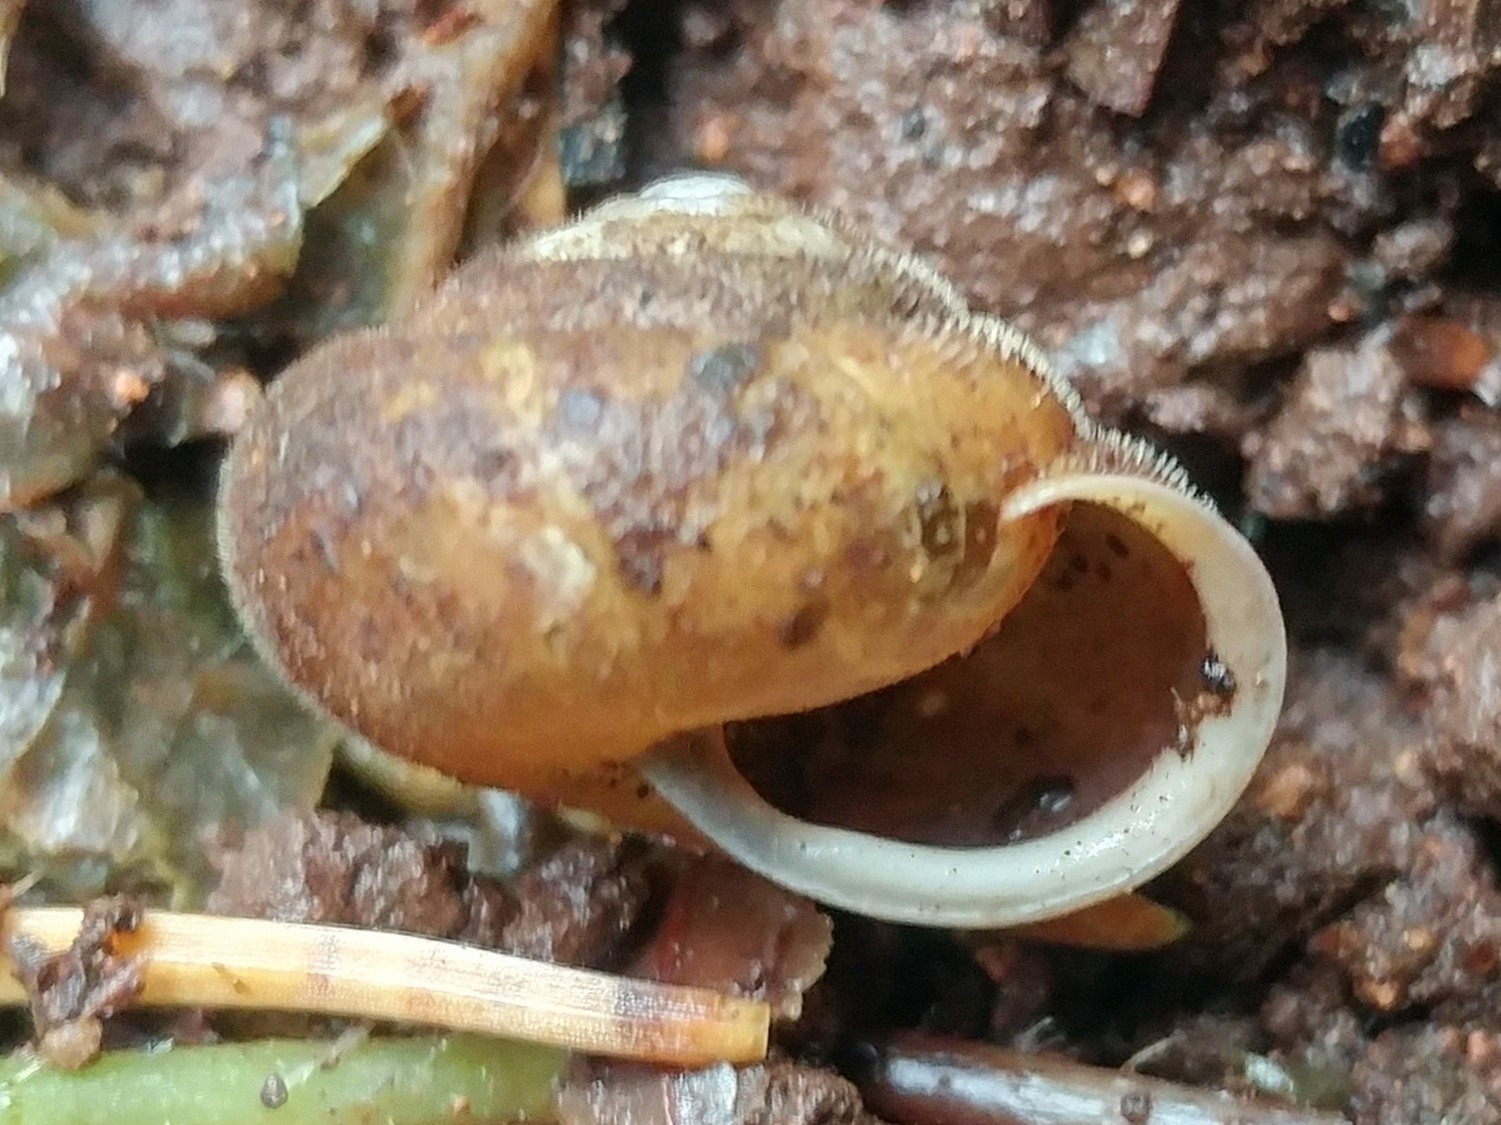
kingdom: Animalia
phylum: Mollusca
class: Gastropoda
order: Stylommatophora
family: Polygyridae
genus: Vespericola
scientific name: Vespericola columbianus
